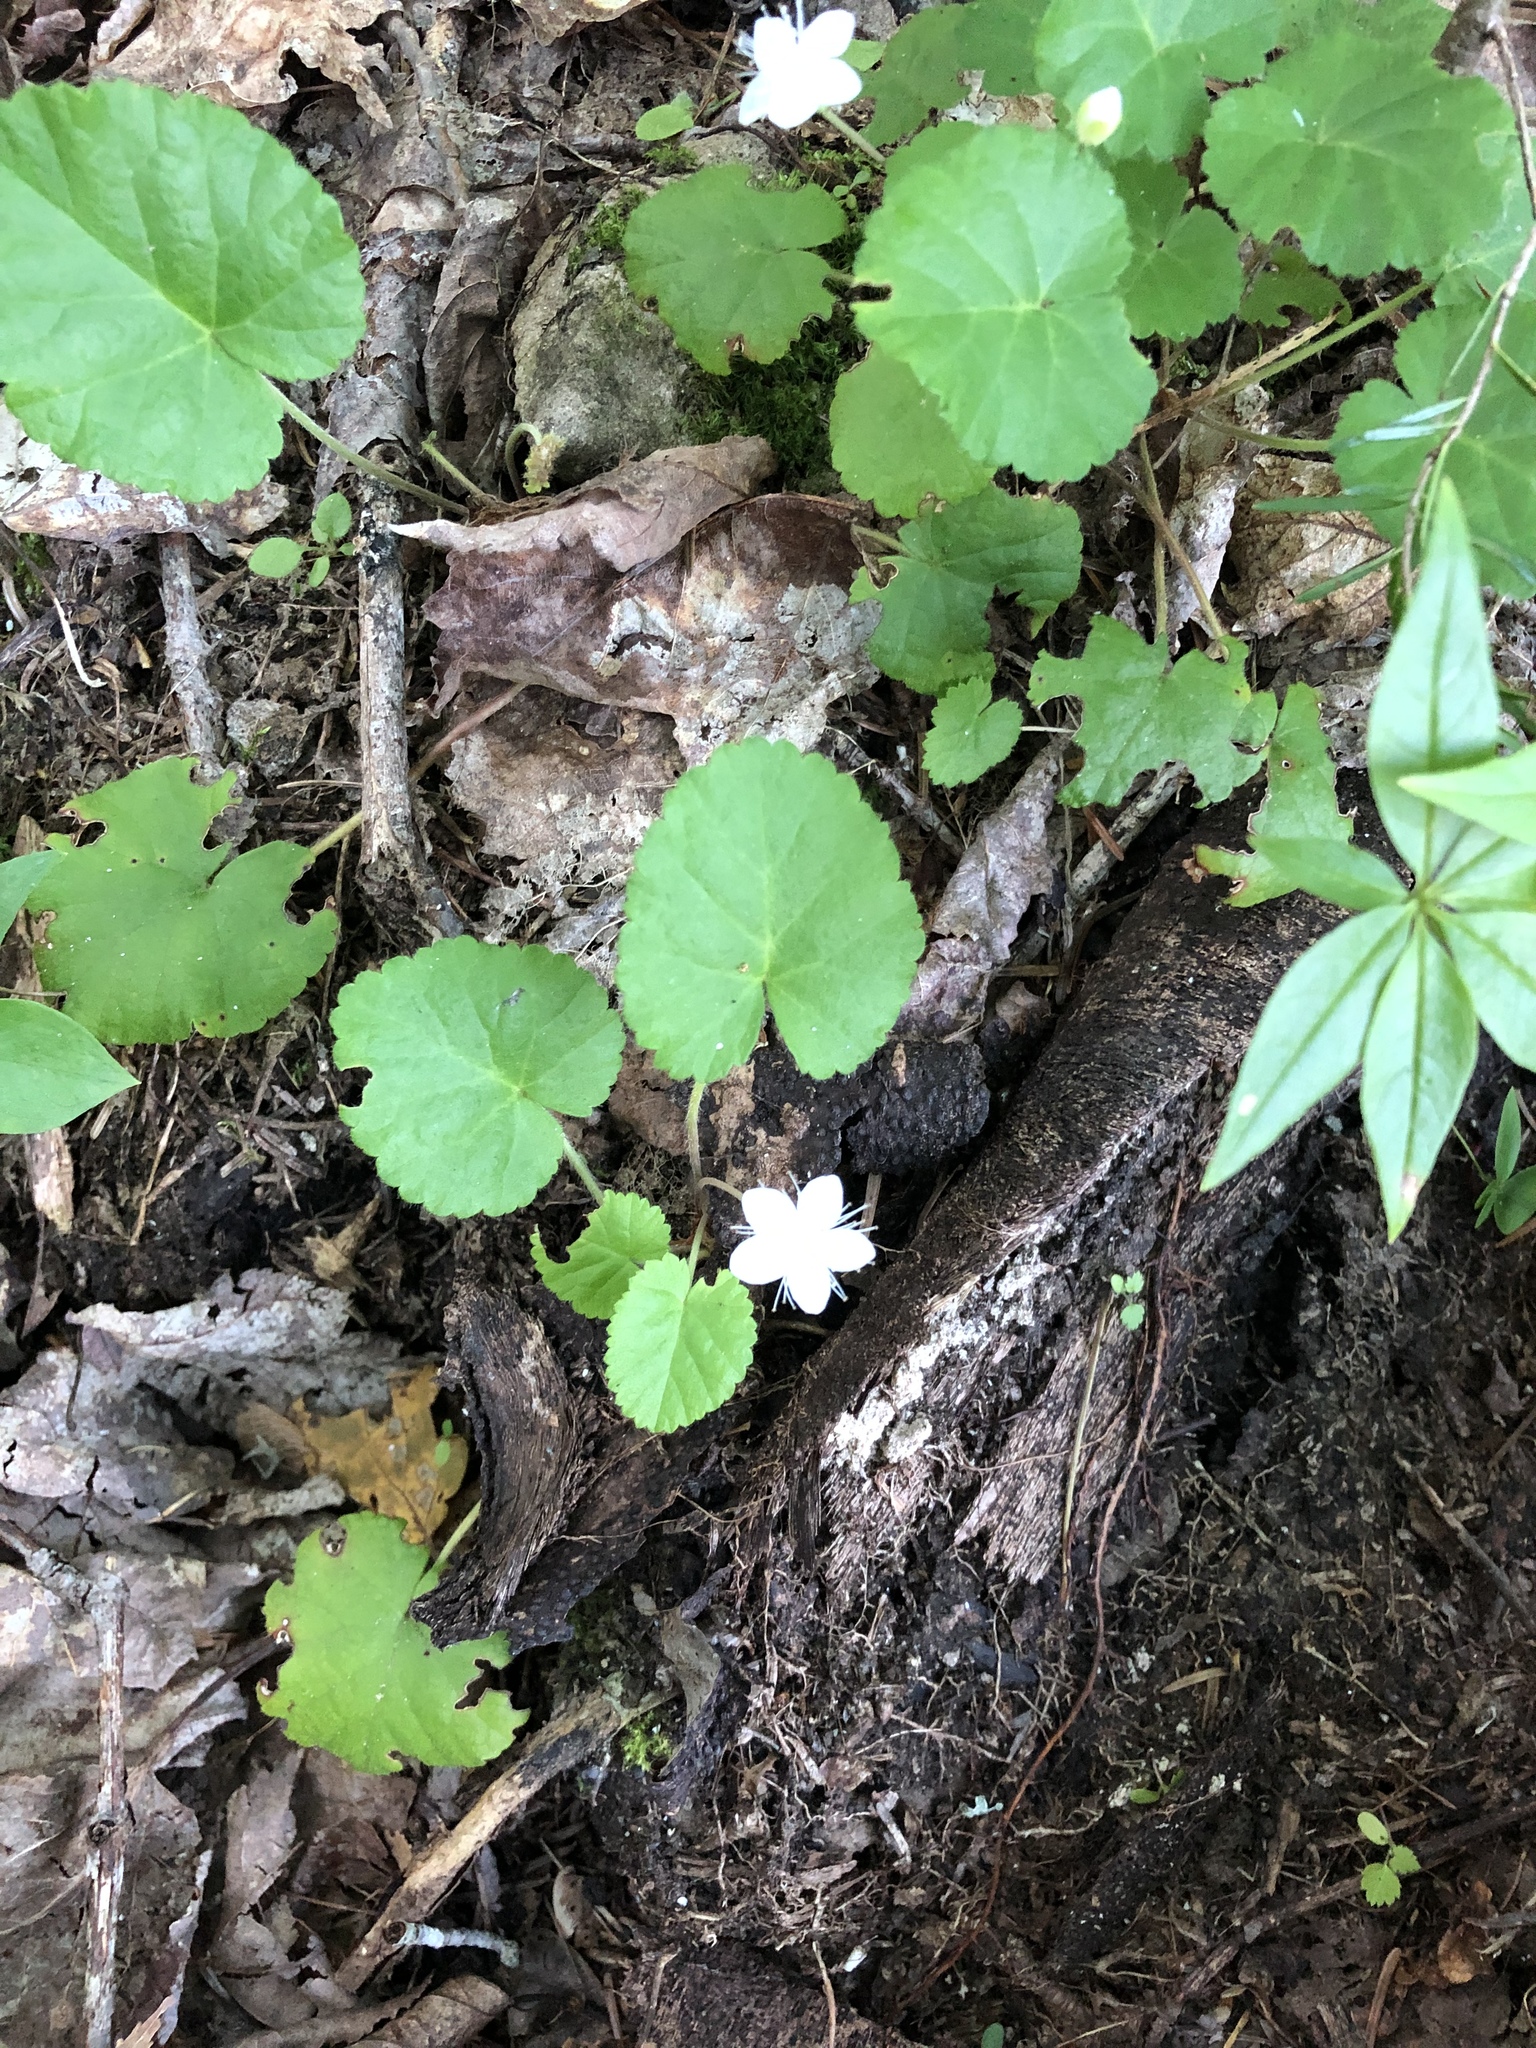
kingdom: Plantae
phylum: Tracheophyta
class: Magnoliopsida
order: Rosales
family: Rosaceae
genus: Dalibarda
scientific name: Dalibarda repens
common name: Dewdrop
